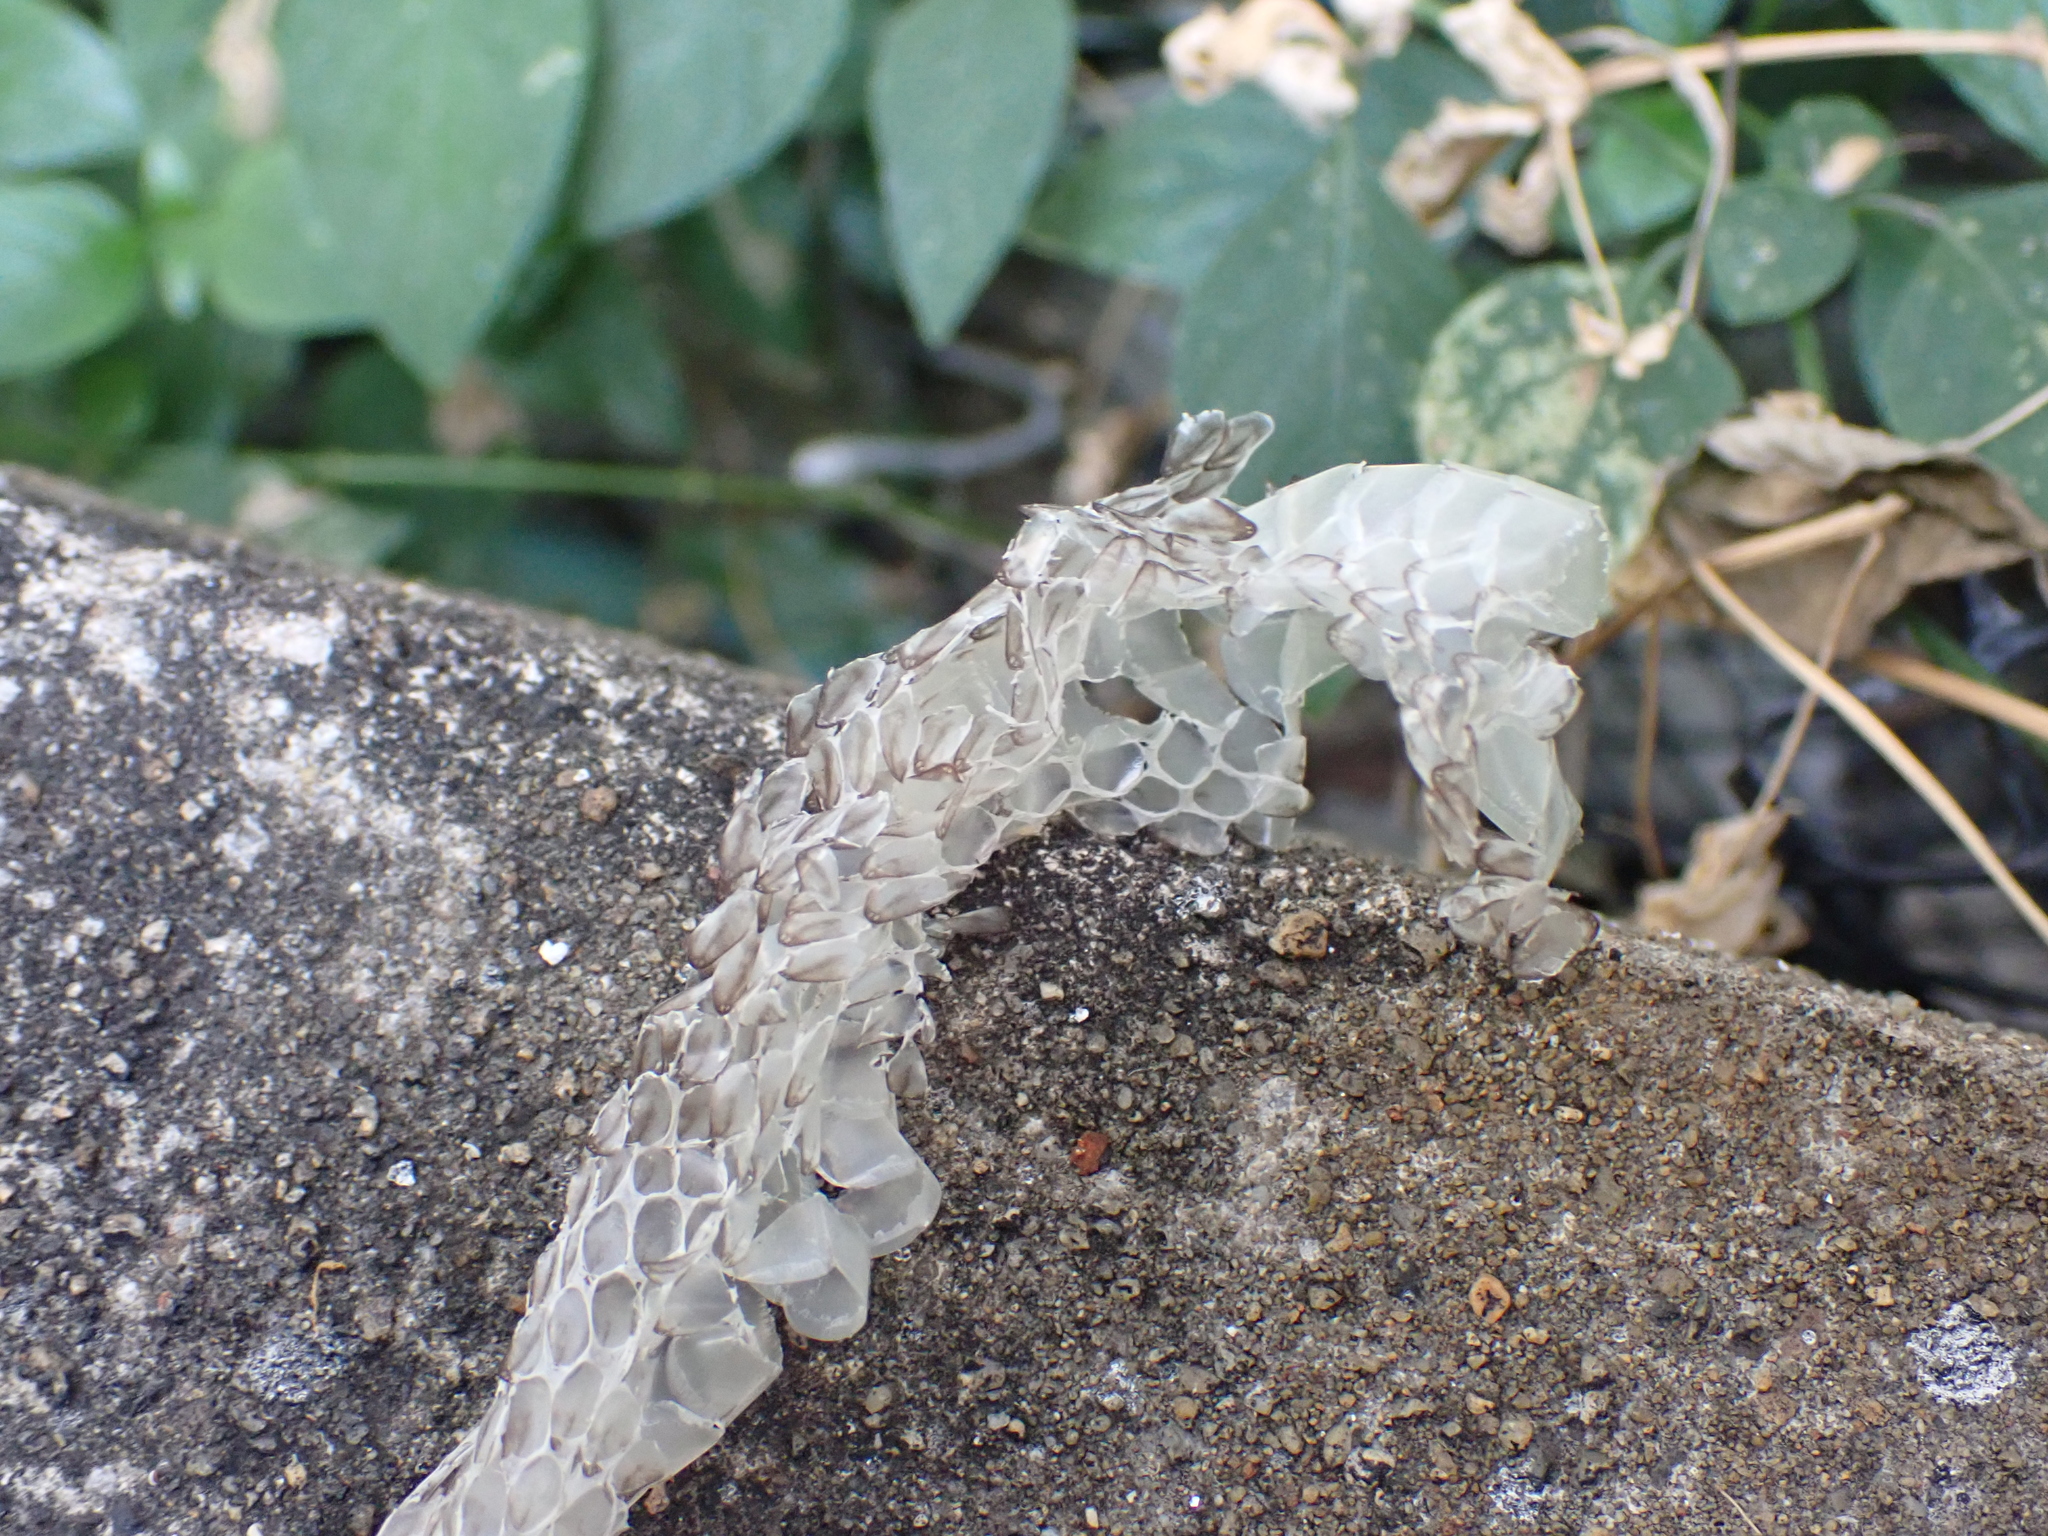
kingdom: Animalia
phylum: Chordata
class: Squamata
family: Colubridae
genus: Chrysopelea
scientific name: Chrysopelea ornata
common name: Golden flying snake
